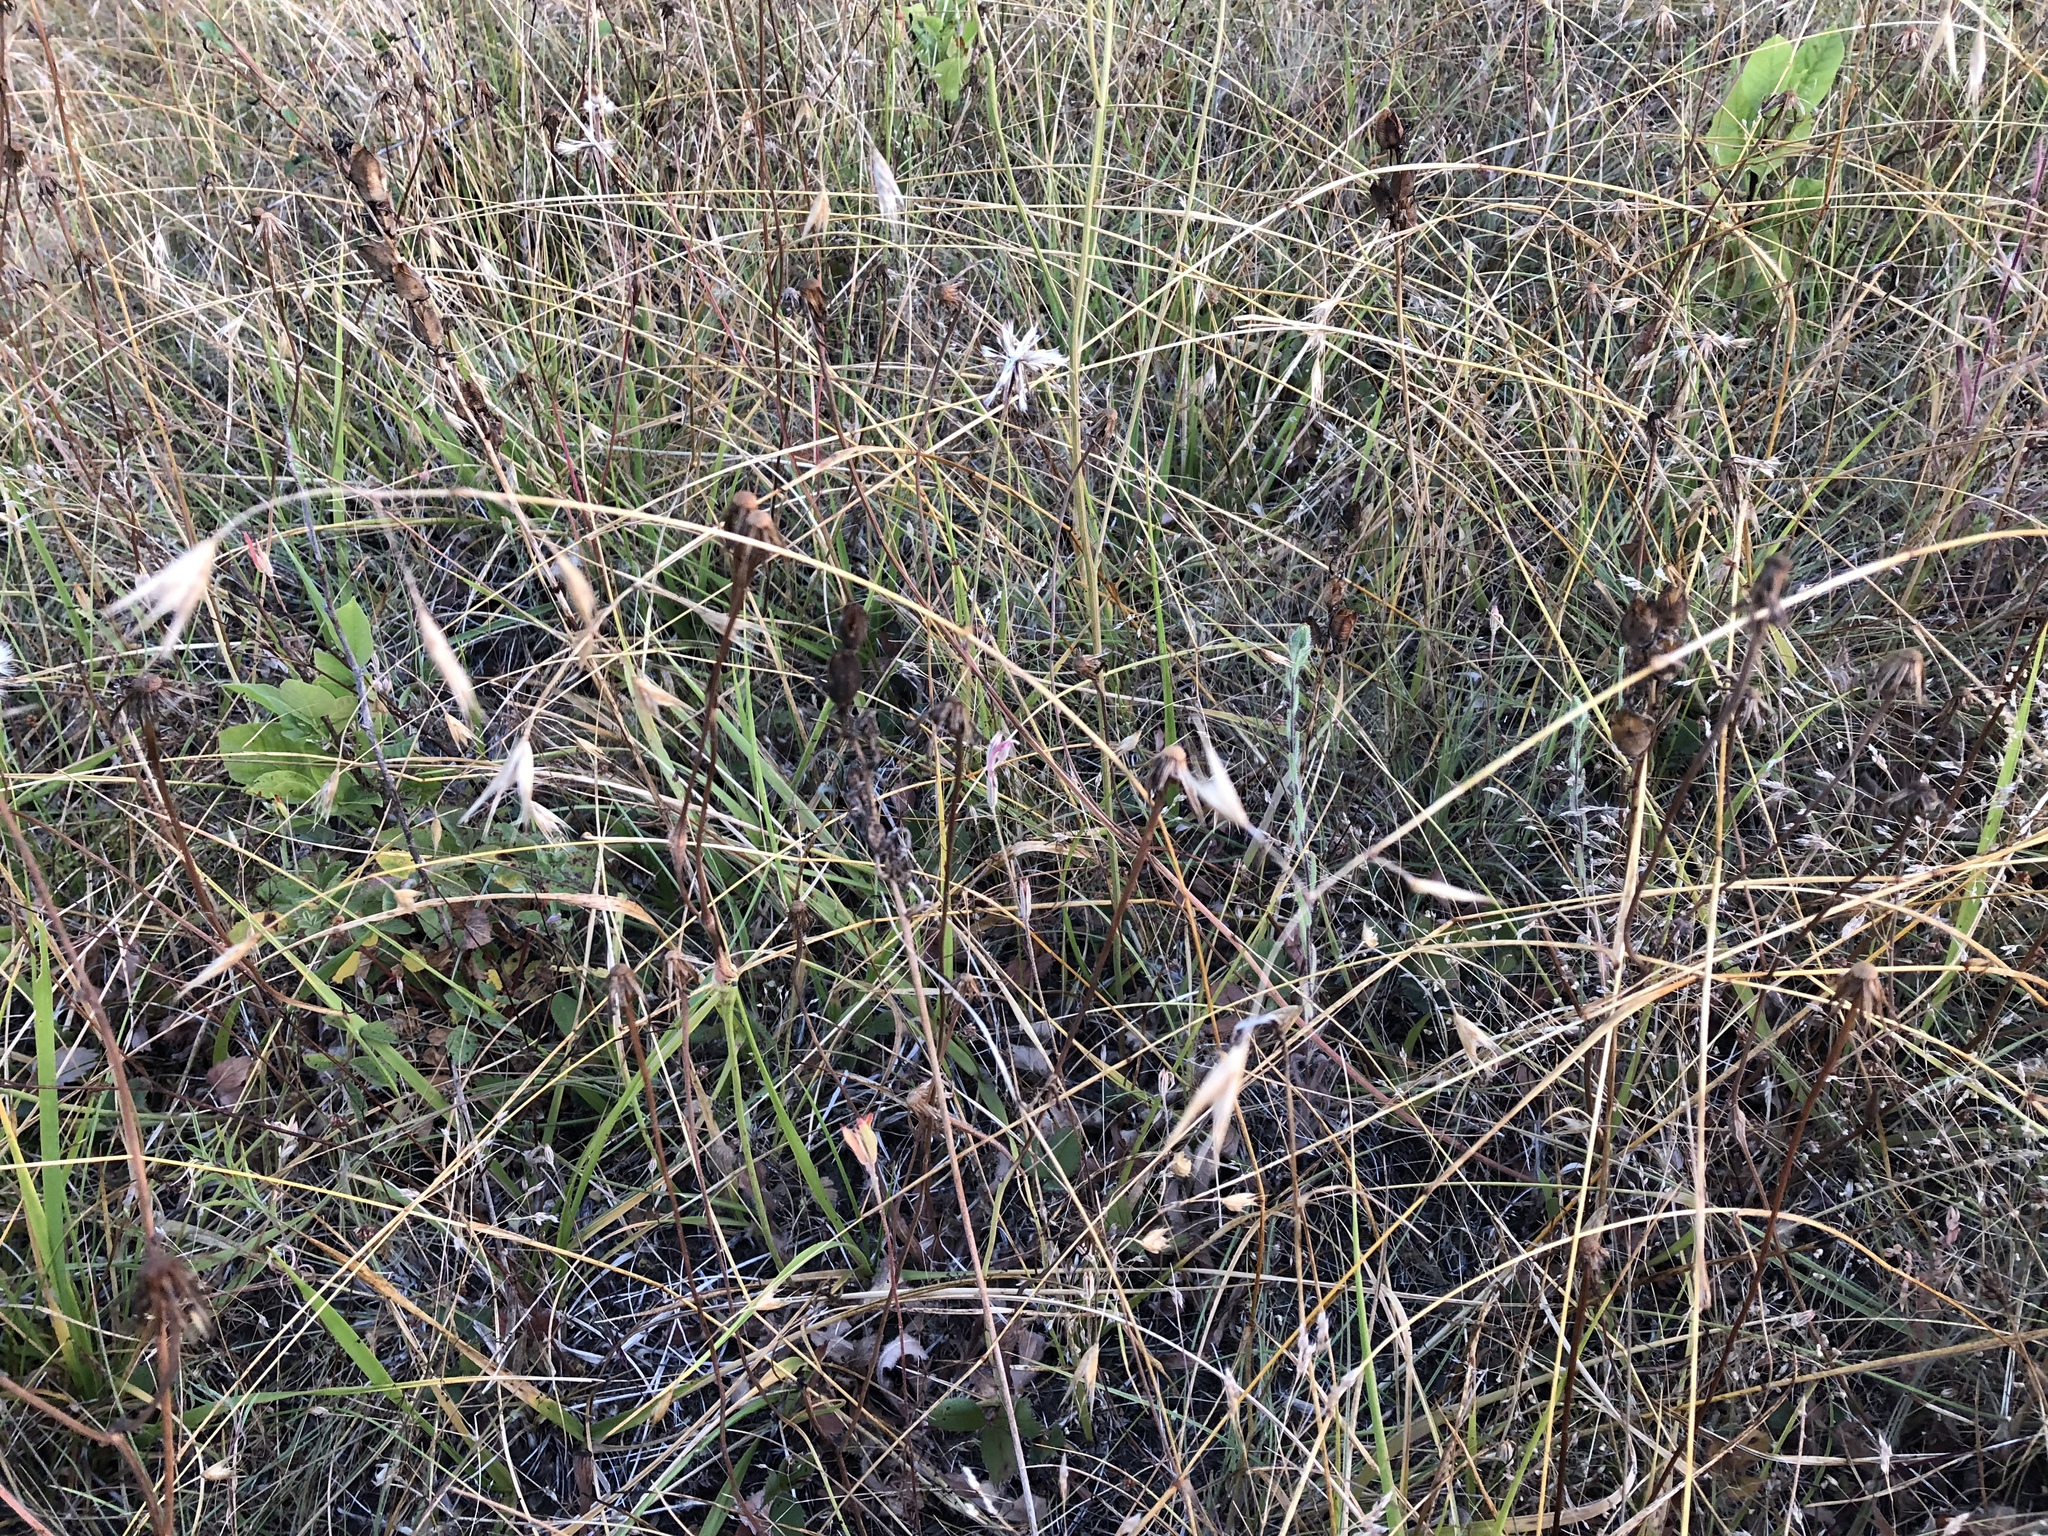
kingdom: Plantae
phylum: Tracheophyta
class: Liliopsida
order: Poales
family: Poaceae
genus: Danthonia
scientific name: Danthonia californica
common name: California oat grass
